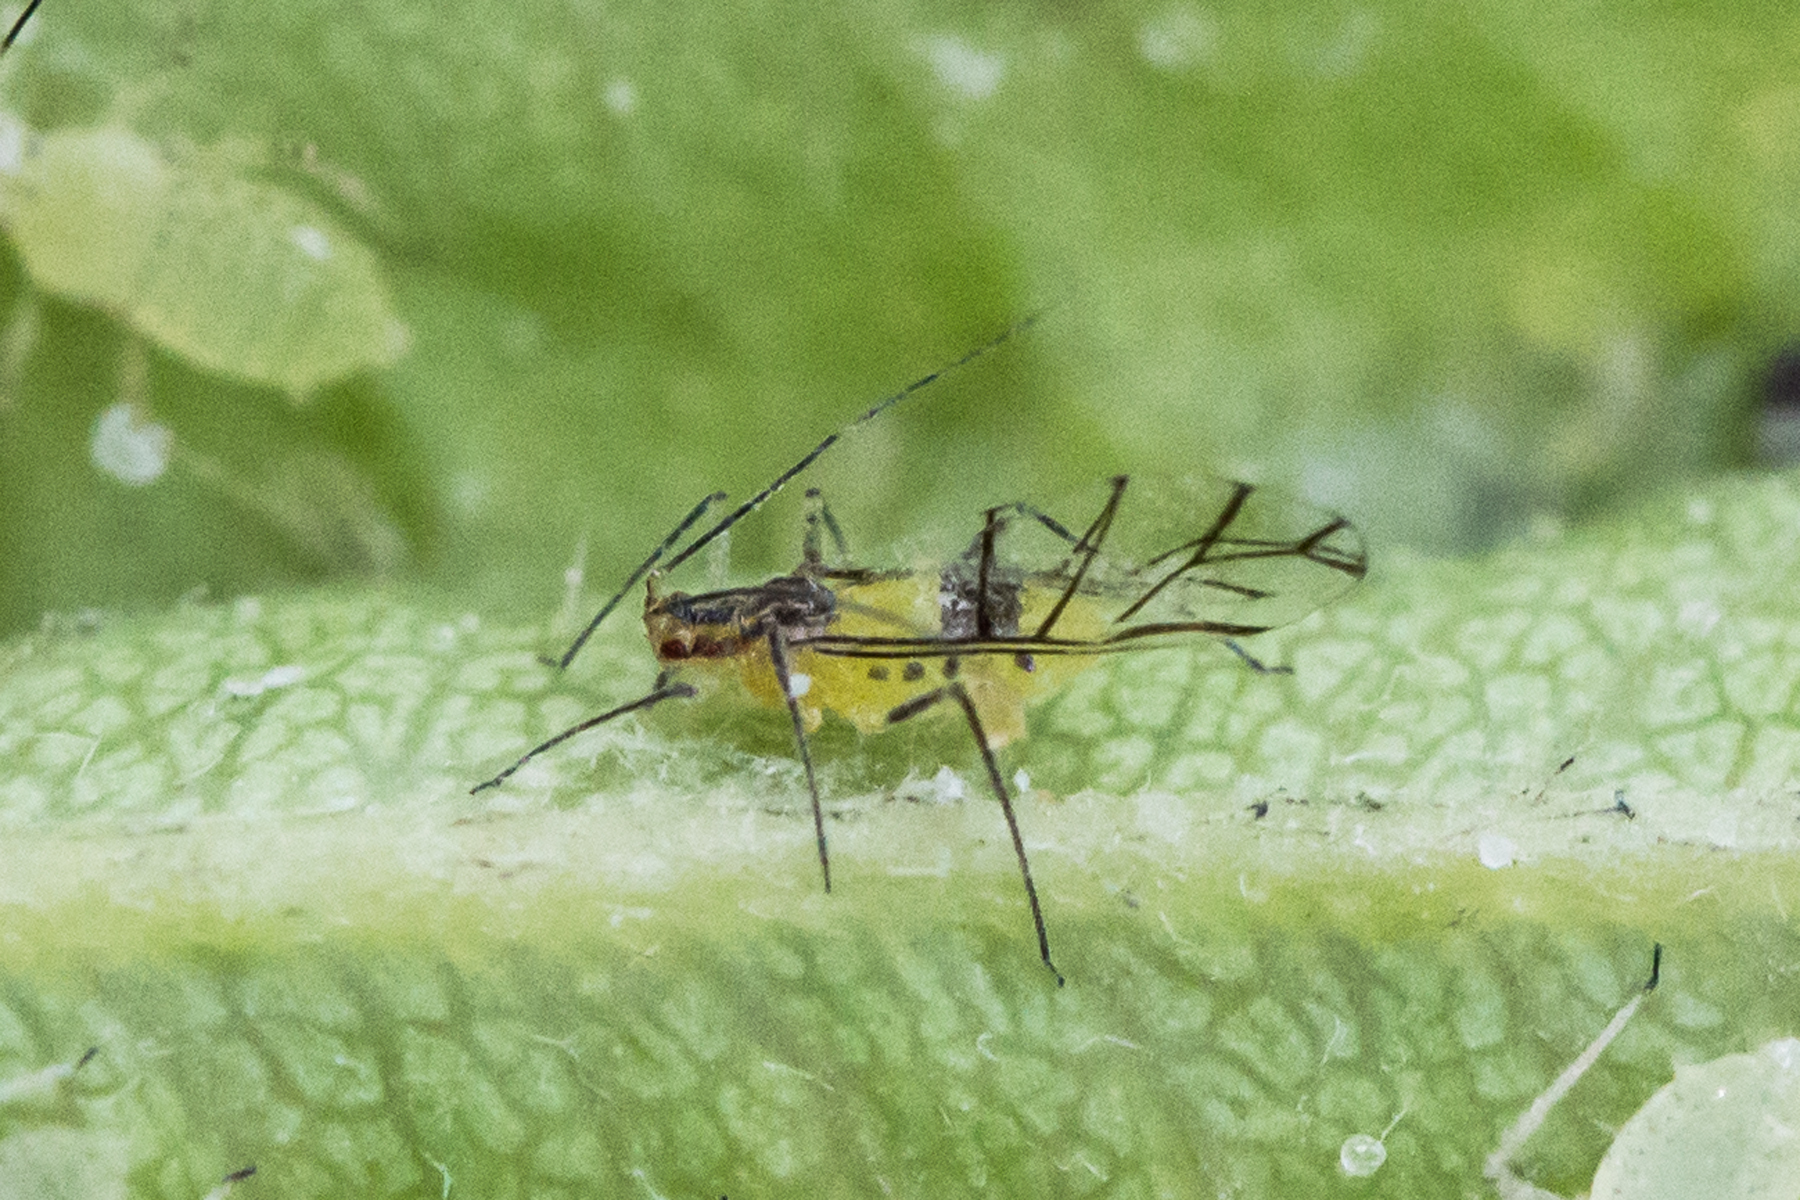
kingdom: Animalia
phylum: Arthropoda
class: Insecta
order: Hemiptera
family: Aphididae
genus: Calaphis
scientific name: Calaphis neobetulella
